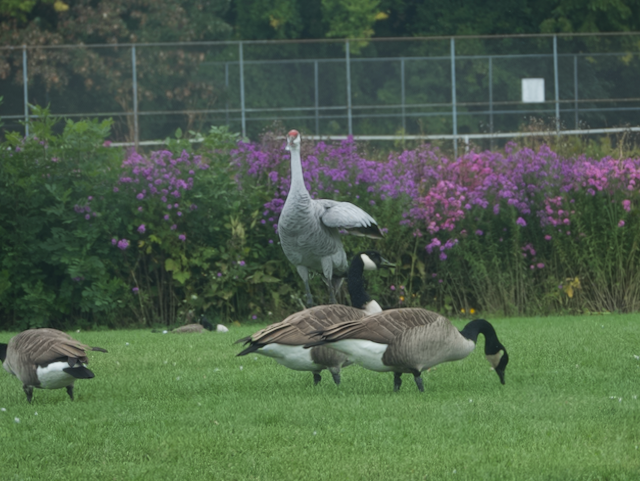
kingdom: Animalia
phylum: Chordata
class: Aves
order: Gruiformes
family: Gruidae
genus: Grus
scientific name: Grus canadensis
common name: Sandhill crane
